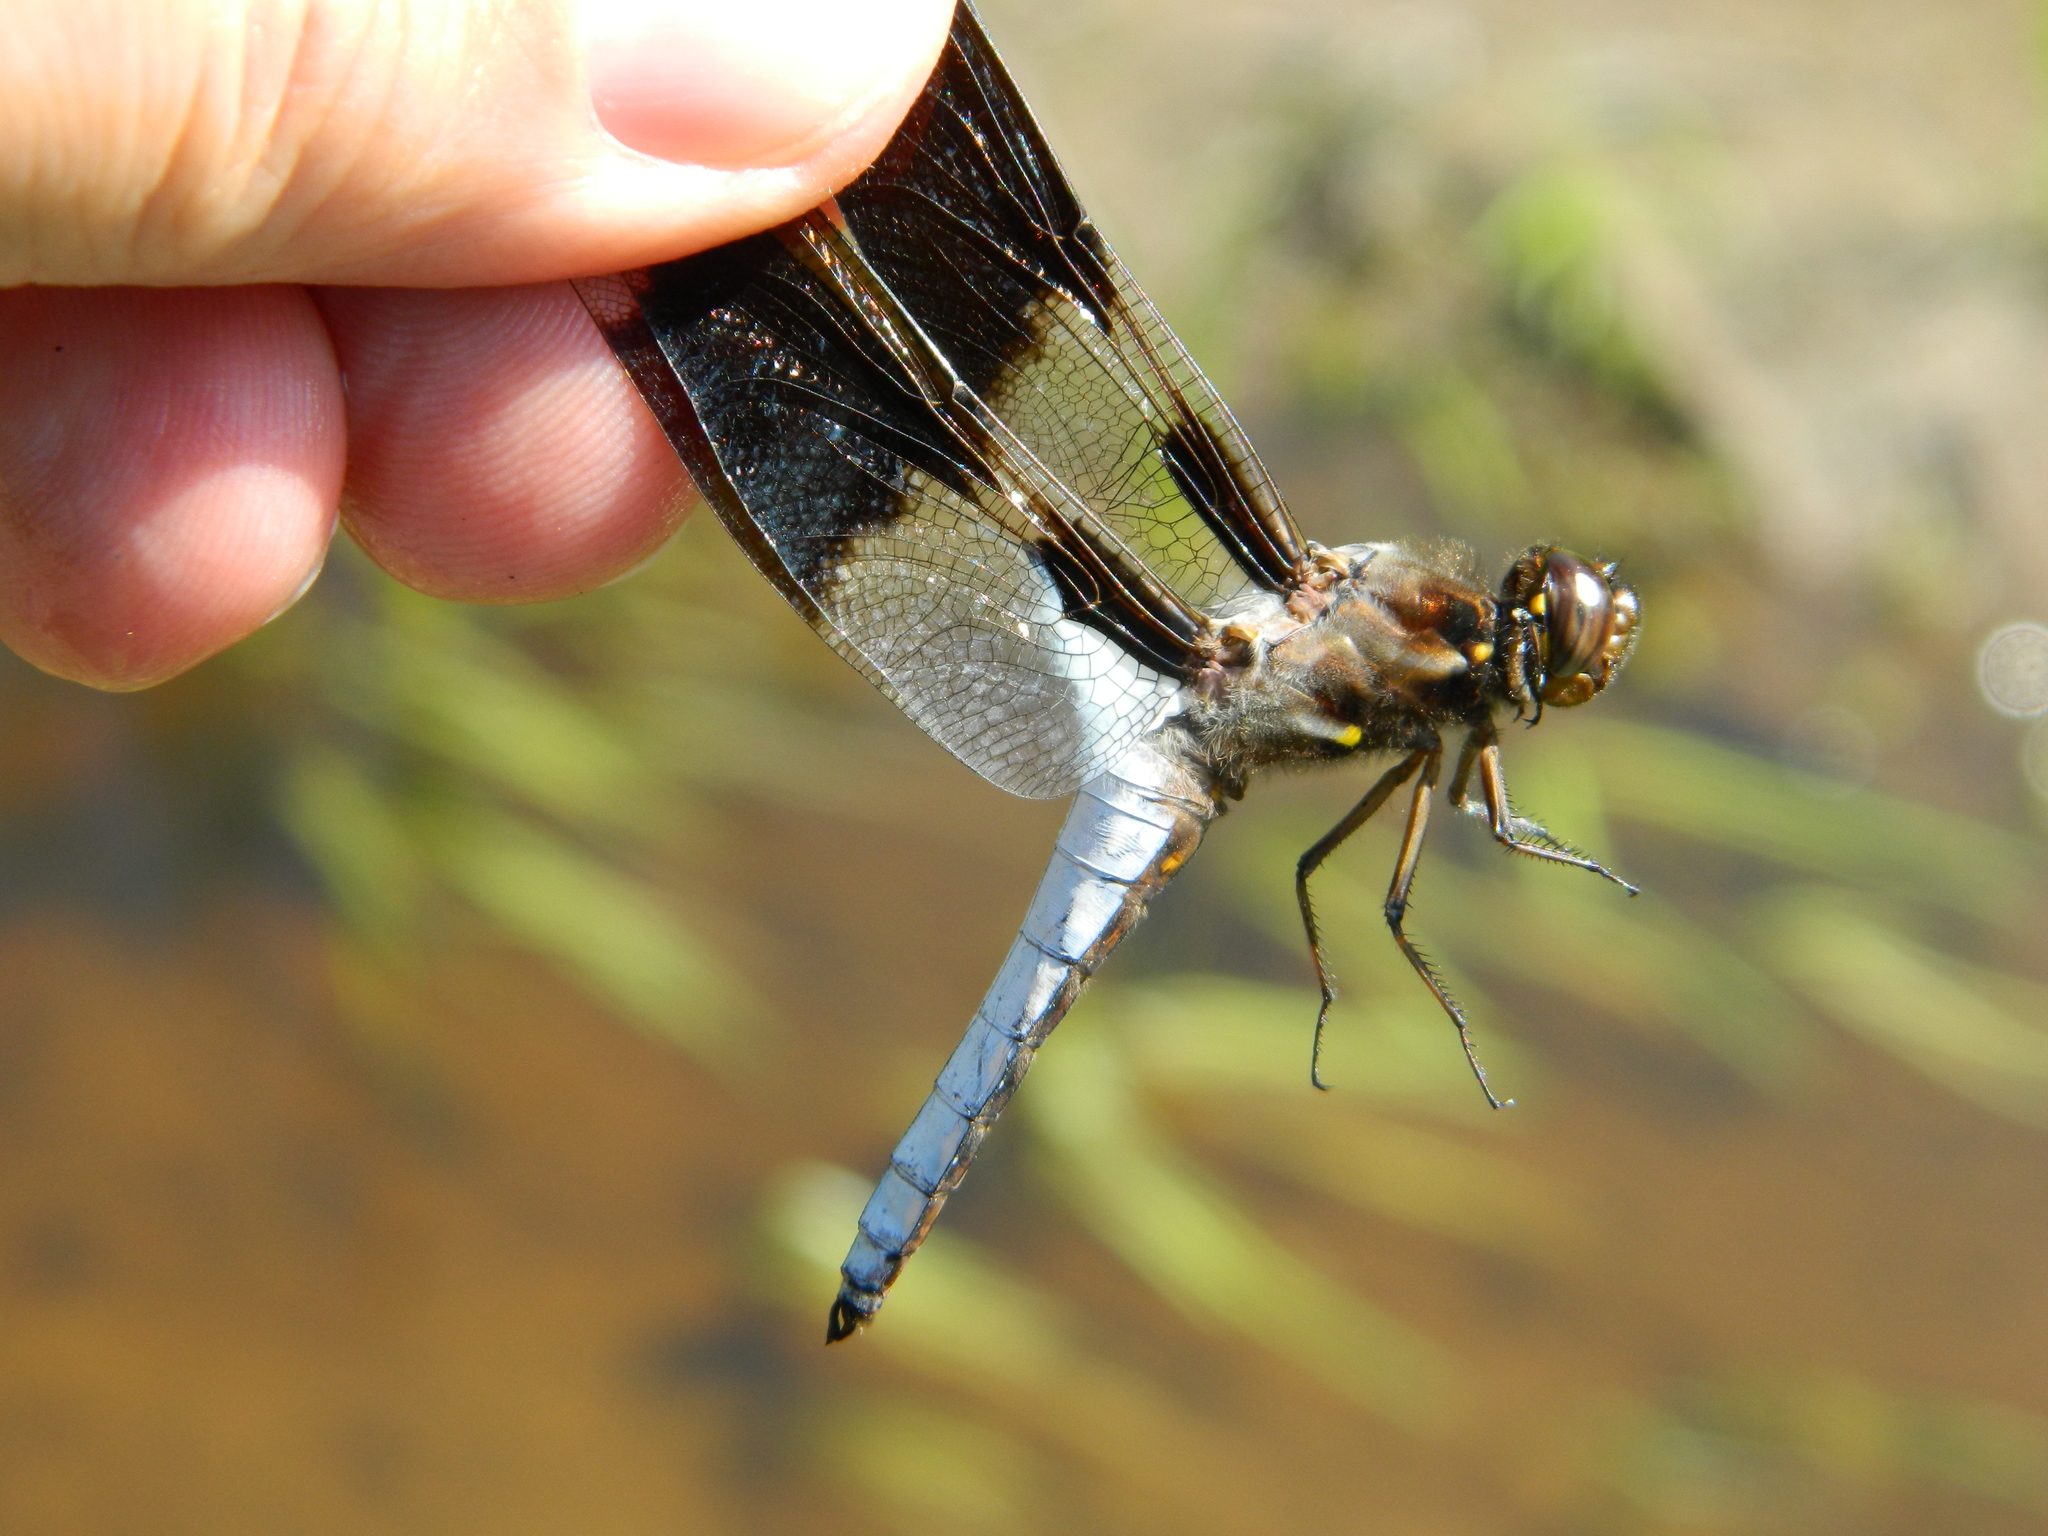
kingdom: Animalia
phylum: Arthropoda
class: Insecta
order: Odonata
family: Libellulidae
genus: Plathemis
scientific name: Plathemis lydia
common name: Common whitetail
